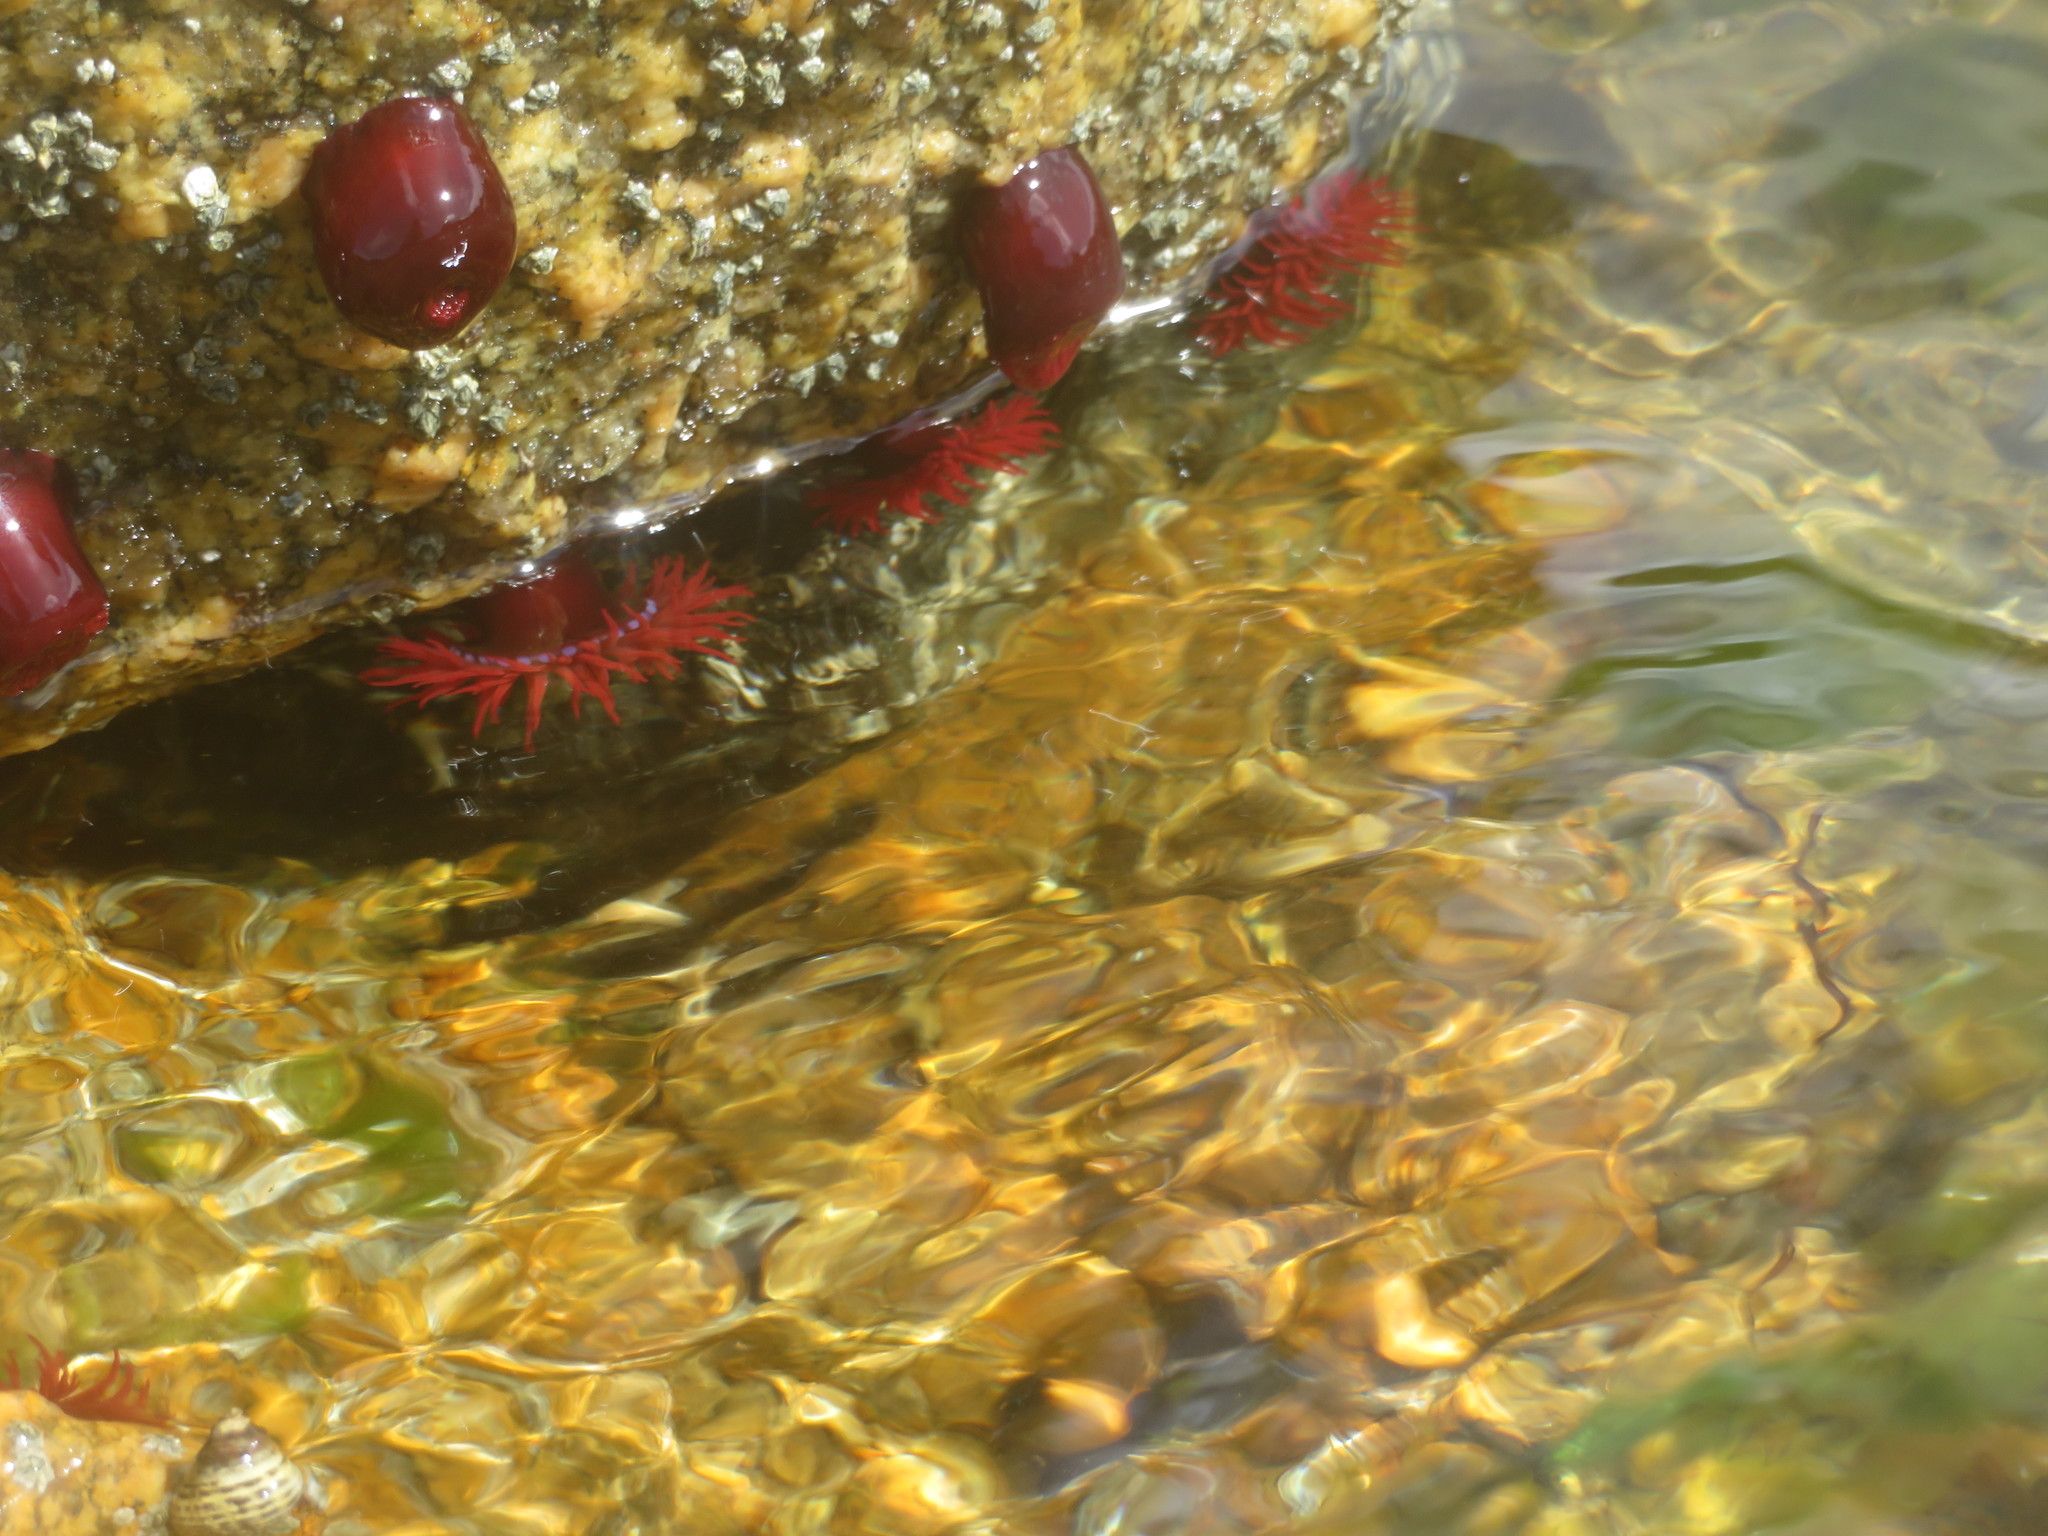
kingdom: Animalia
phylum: Cnidaria
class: Anthozoa
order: Actiniaria
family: Actiniidae
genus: Actinia
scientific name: Actinia tenebrosa
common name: Waratah anemone
